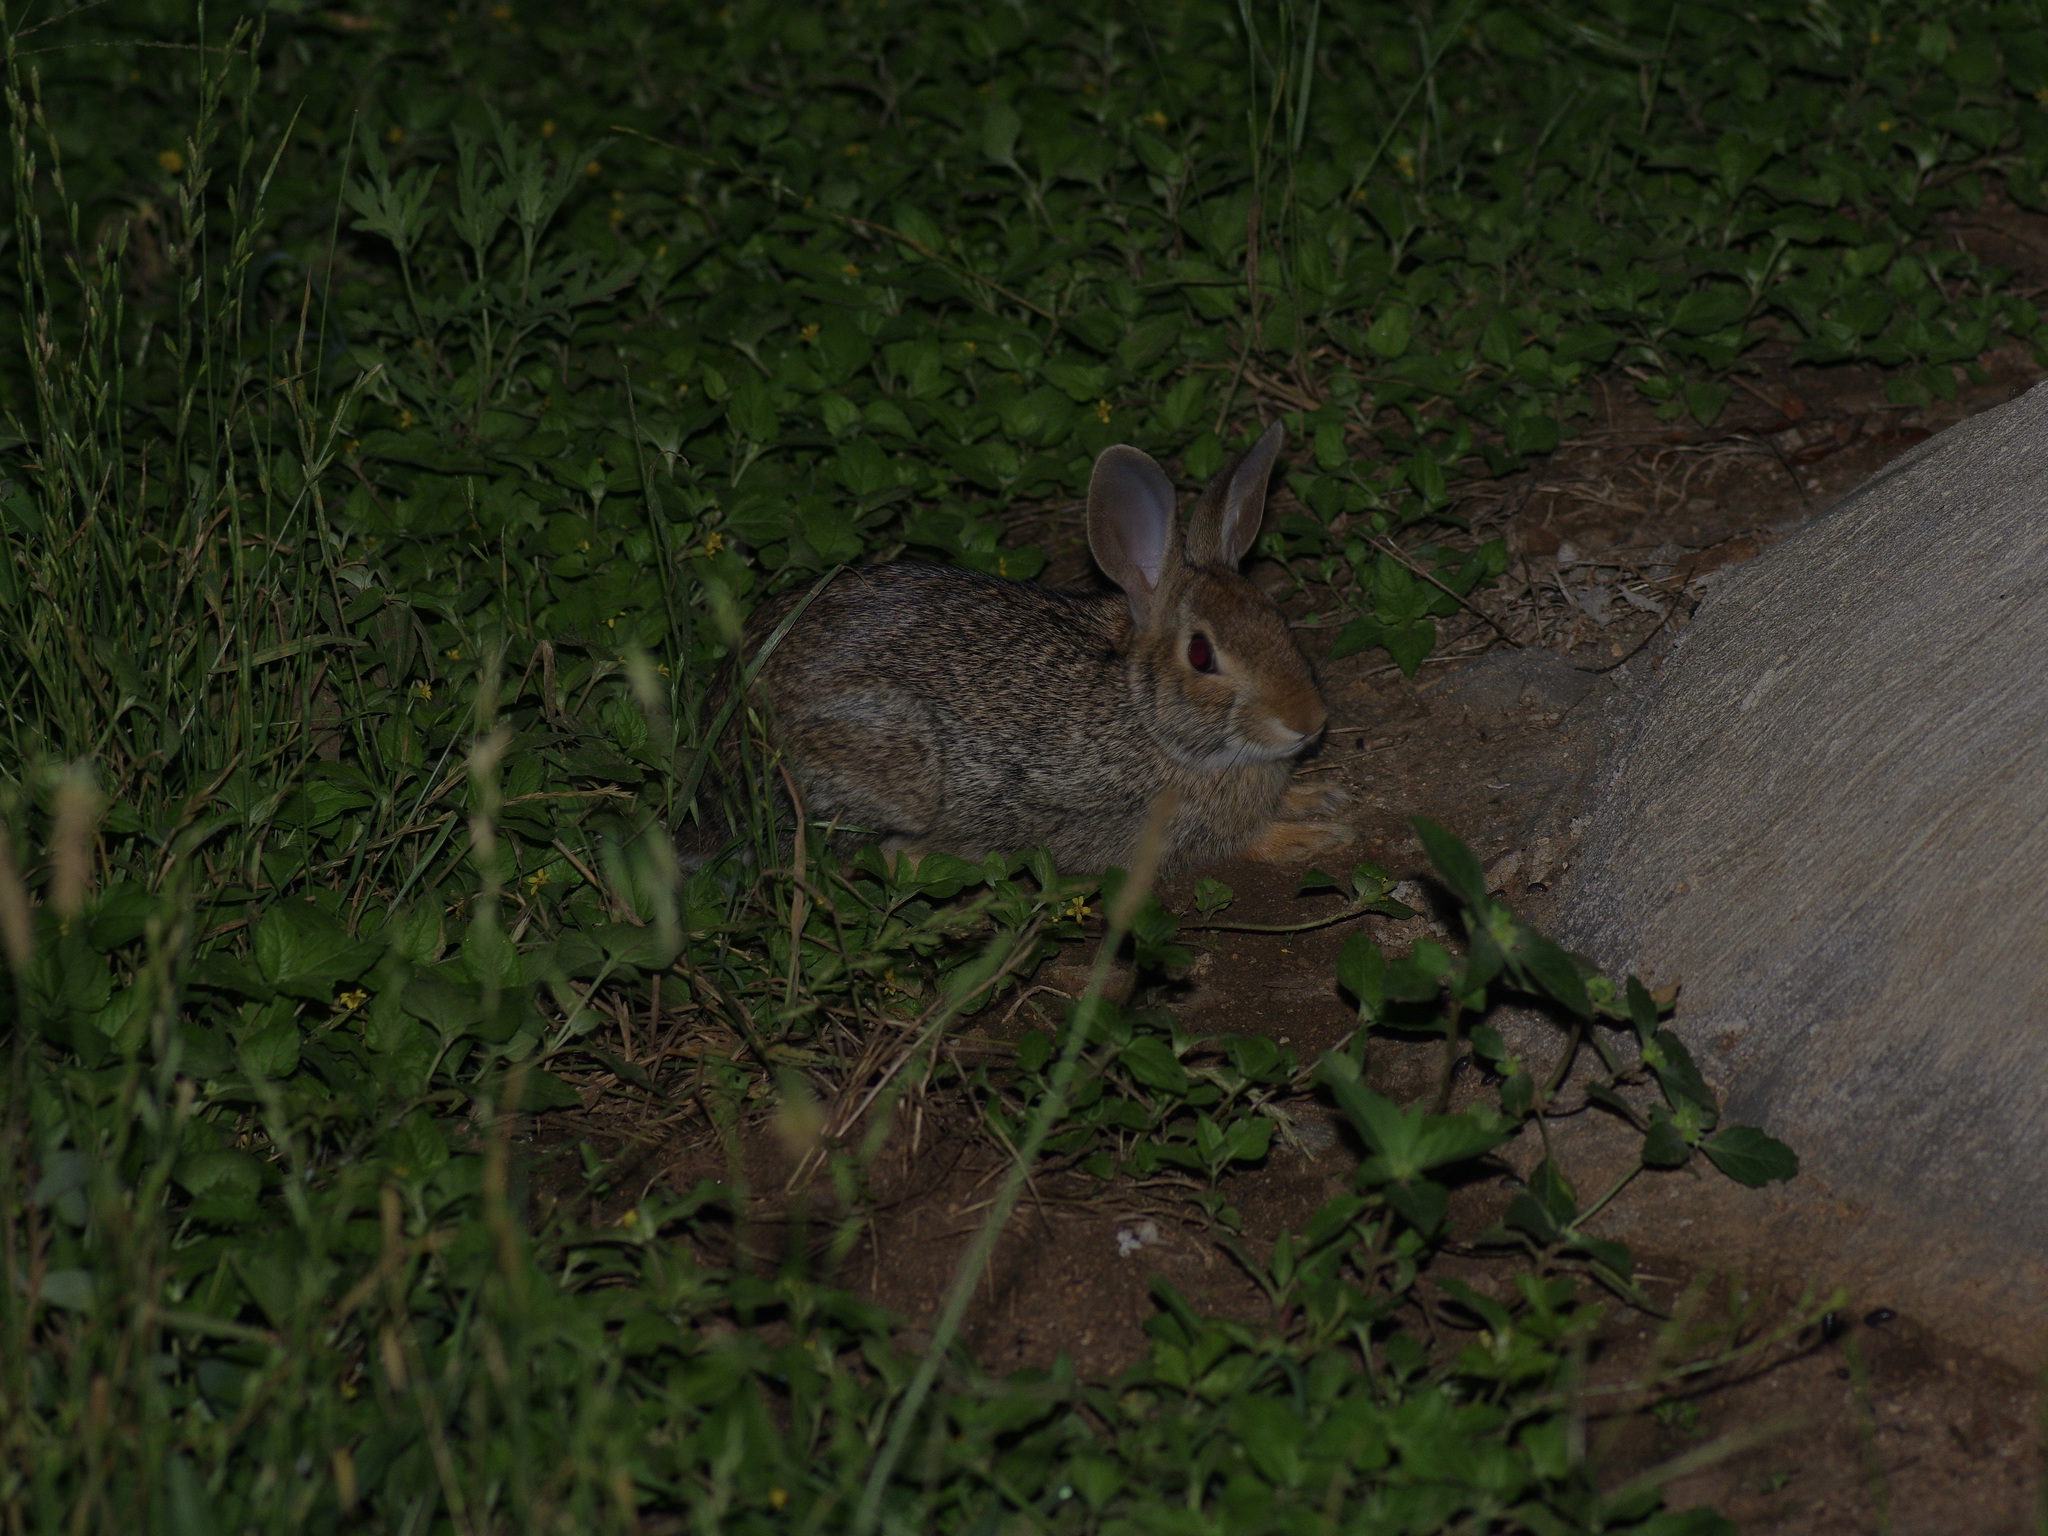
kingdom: Animalia
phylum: Chordata
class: Mammalia
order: Lagomorpha
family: Leporidae
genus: Sylvilagus
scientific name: Sylvilagus floridanus
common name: Eastern cottontail
